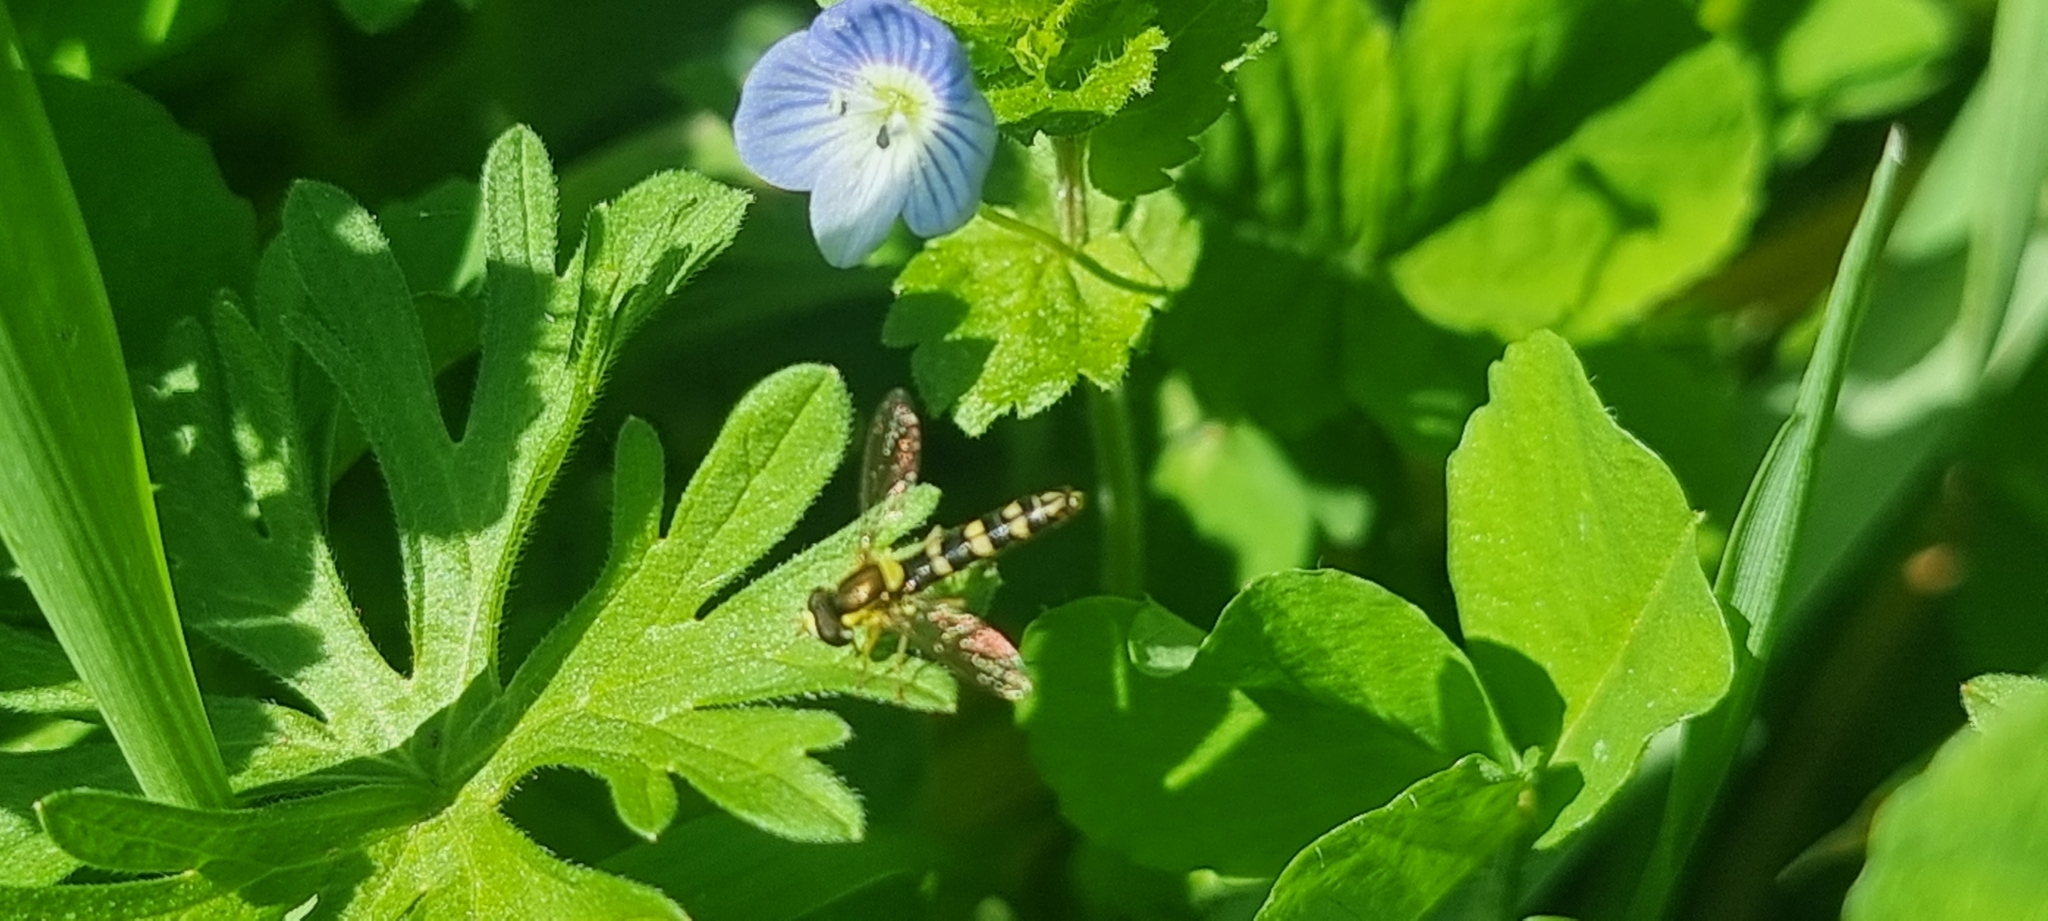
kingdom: Animalia
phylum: Arthropoda
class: Insecta
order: Diptera
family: Syrphidae
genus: Sphaerophoria
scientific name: Sphaerophoria scripta
